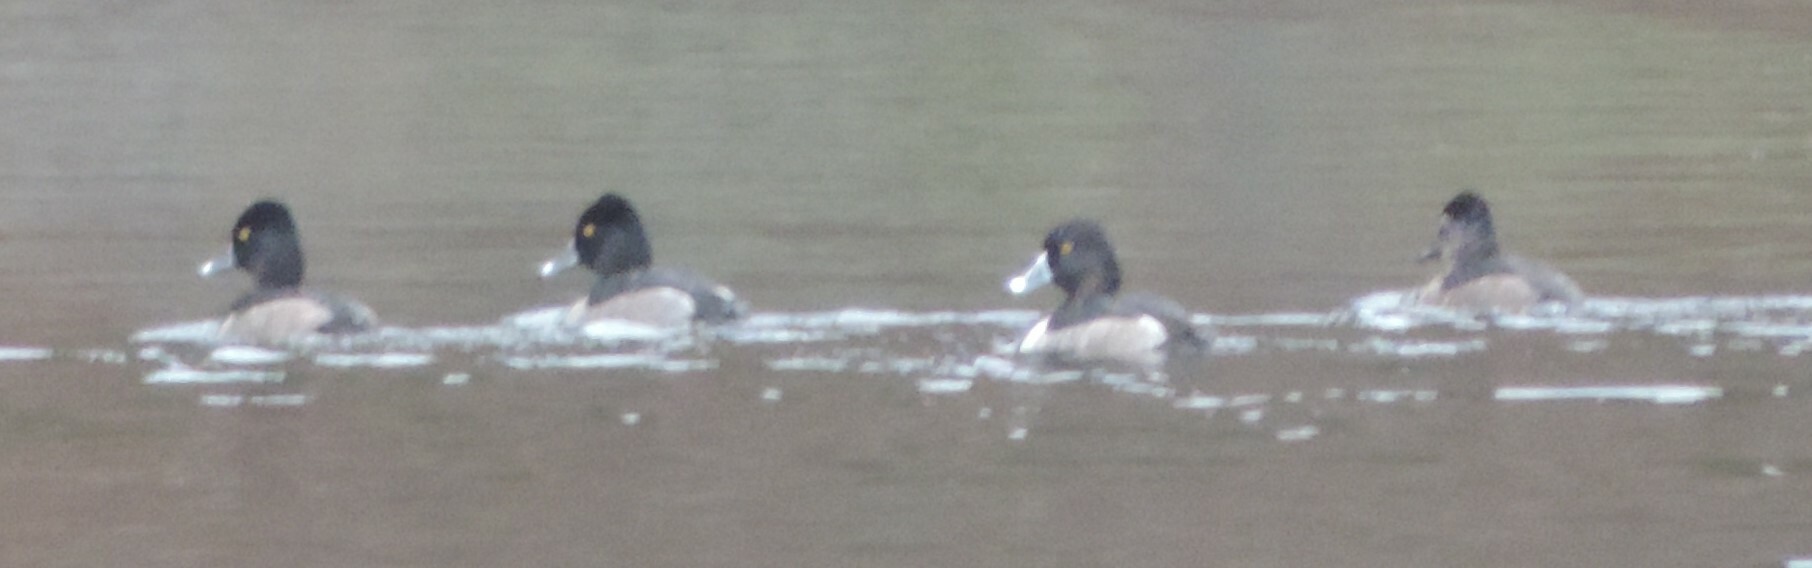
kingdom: Animalia
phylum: Chordata
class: Aves
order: Anseriformes
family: Anatidae
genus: Aythya
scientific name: Aythya collaris
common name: Ring-necked duck
